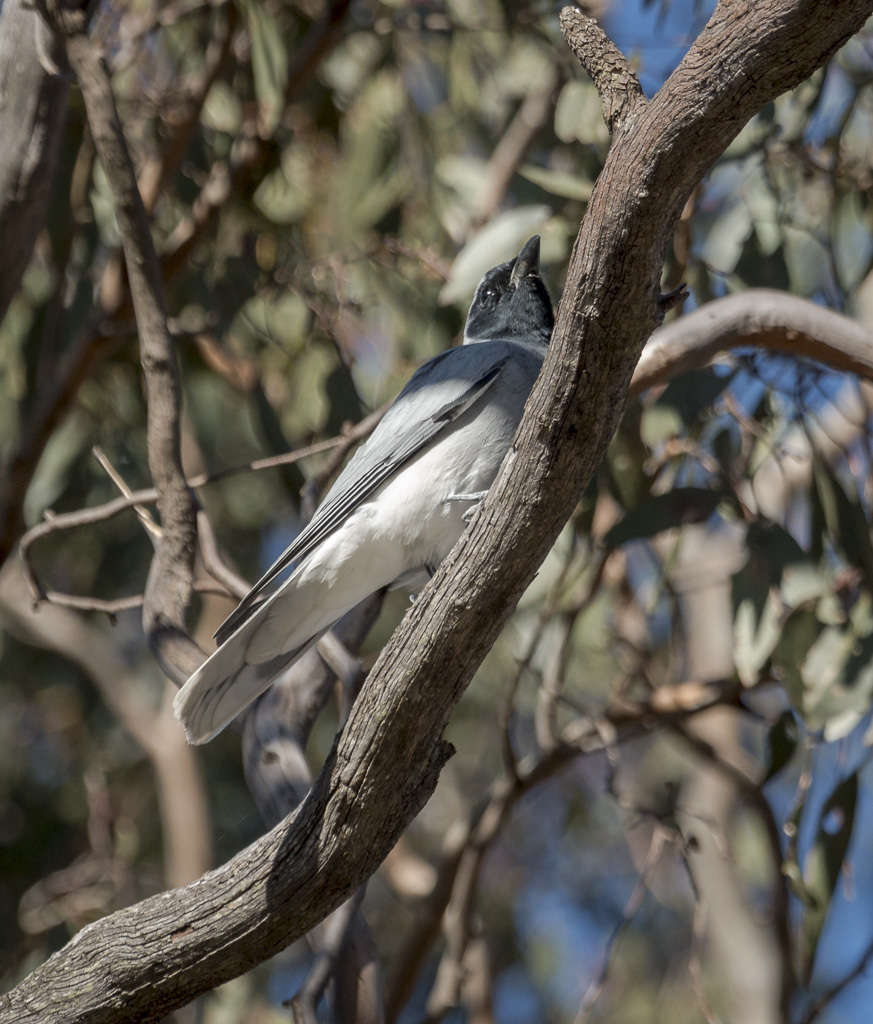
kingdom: Animalia
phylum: Chordata
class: Aves
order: Passeriformes
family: Campephagidae
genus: Coracina
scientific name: Coracina novaehollandiae
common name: Black-faced cuckooshrike
